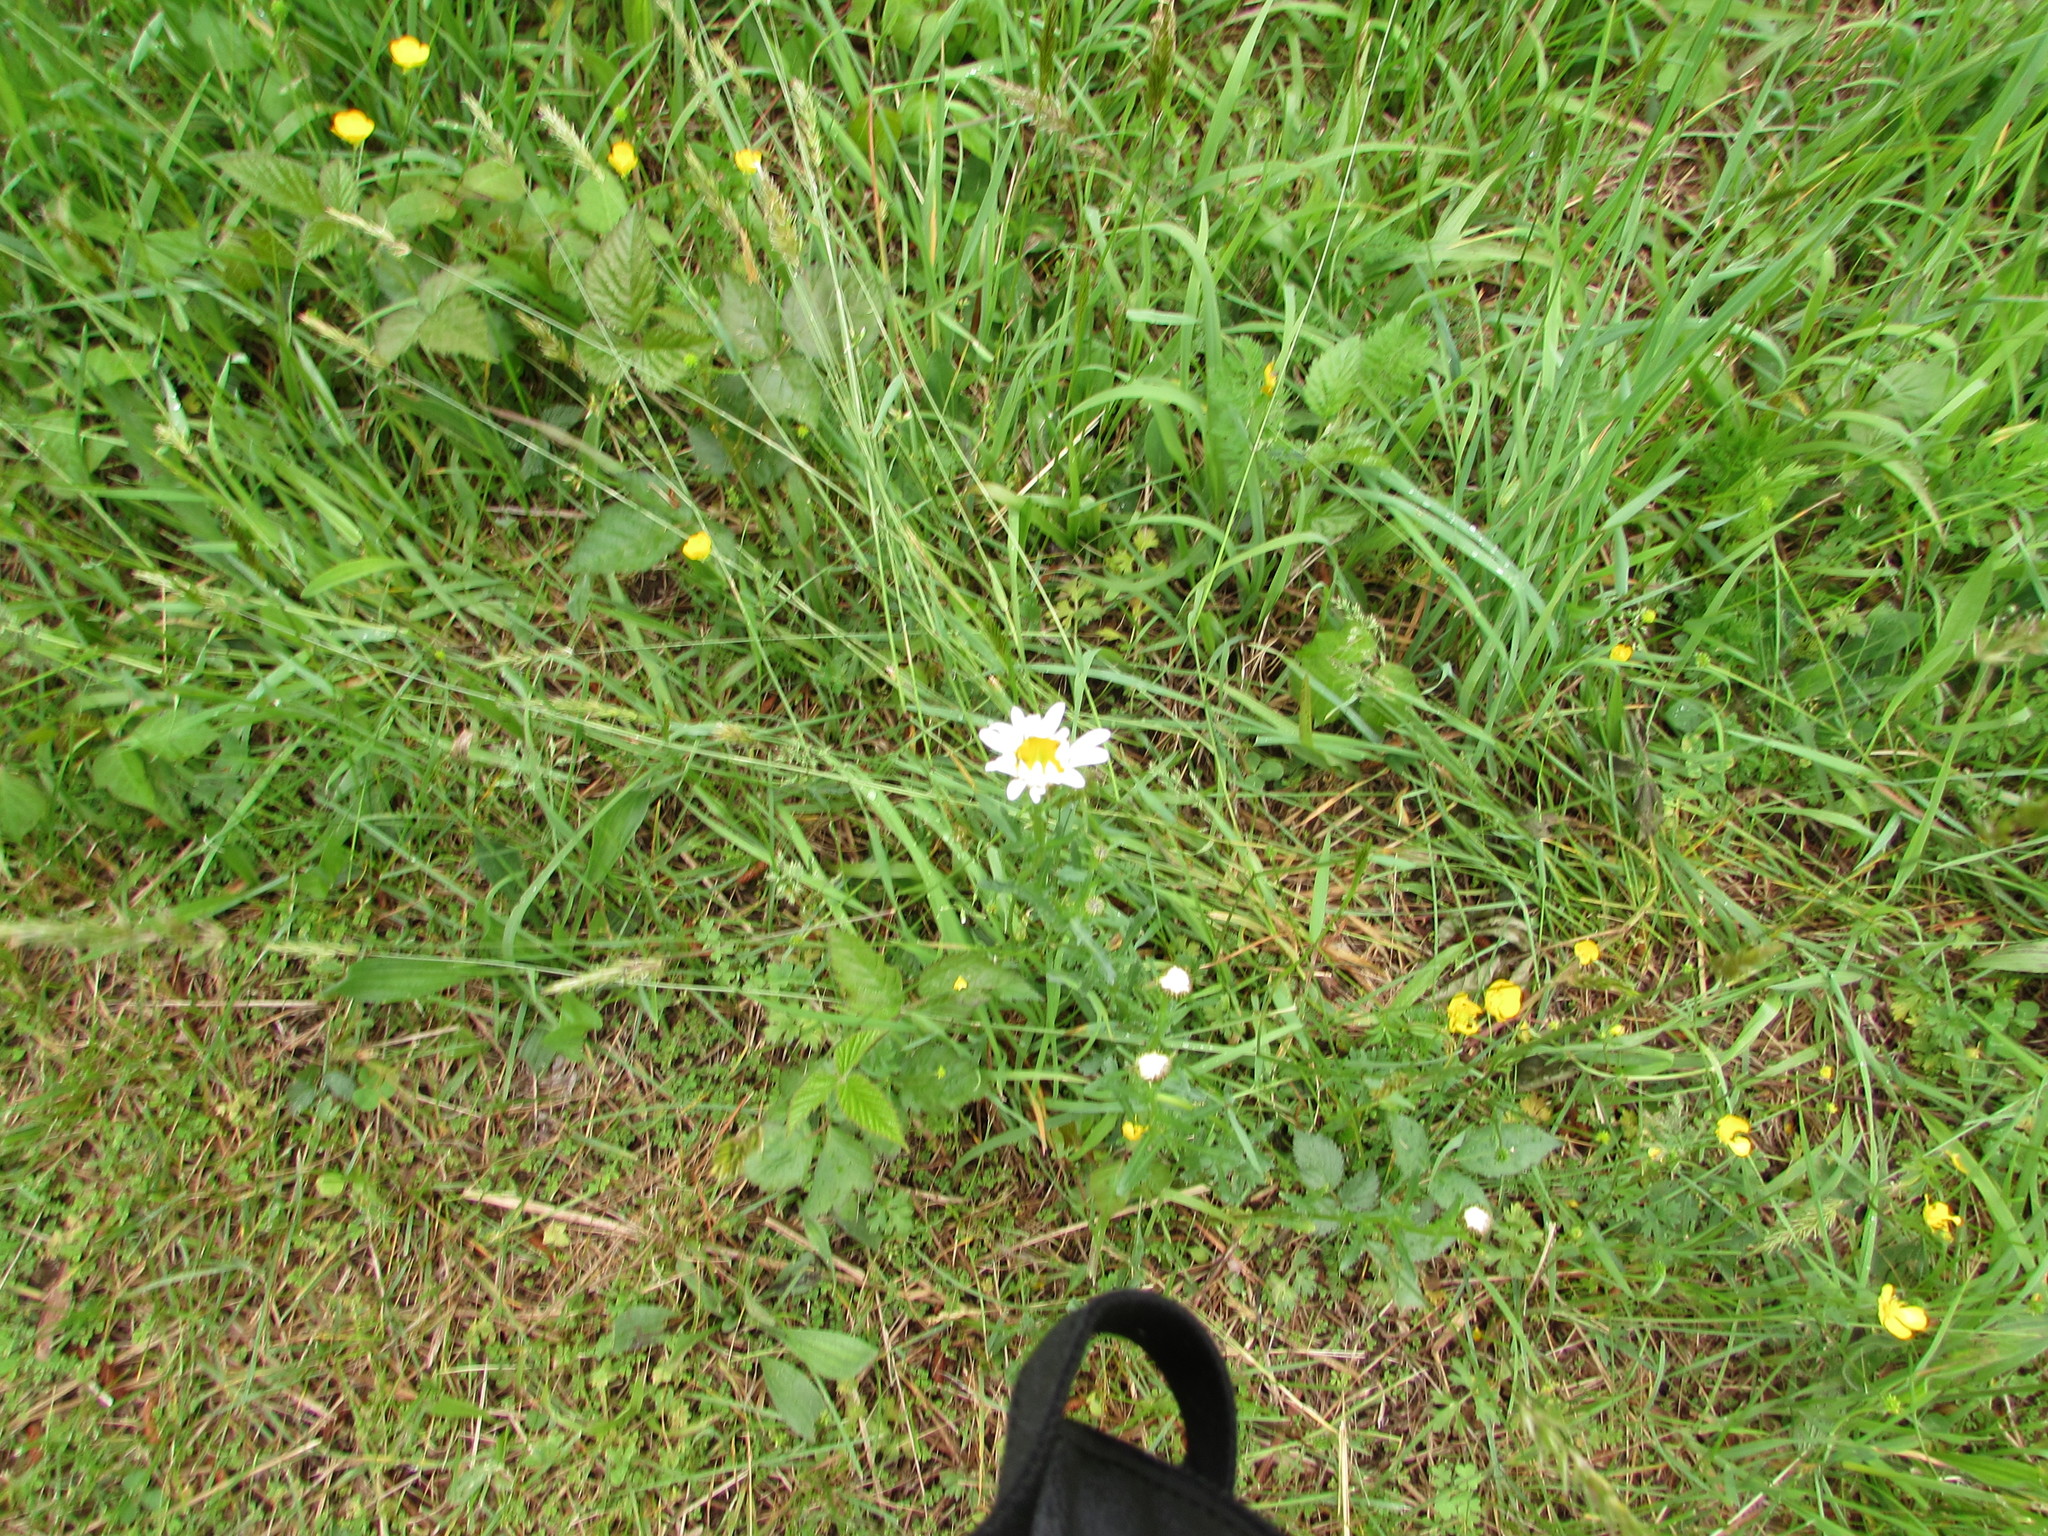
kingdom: Plantae
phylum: Tracheophyta
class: Magnoliopsida
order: Asterales
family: Asteraceae
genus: Leucanthemum
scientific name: Leucanthemum vulgare
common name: Oxeye daisy
